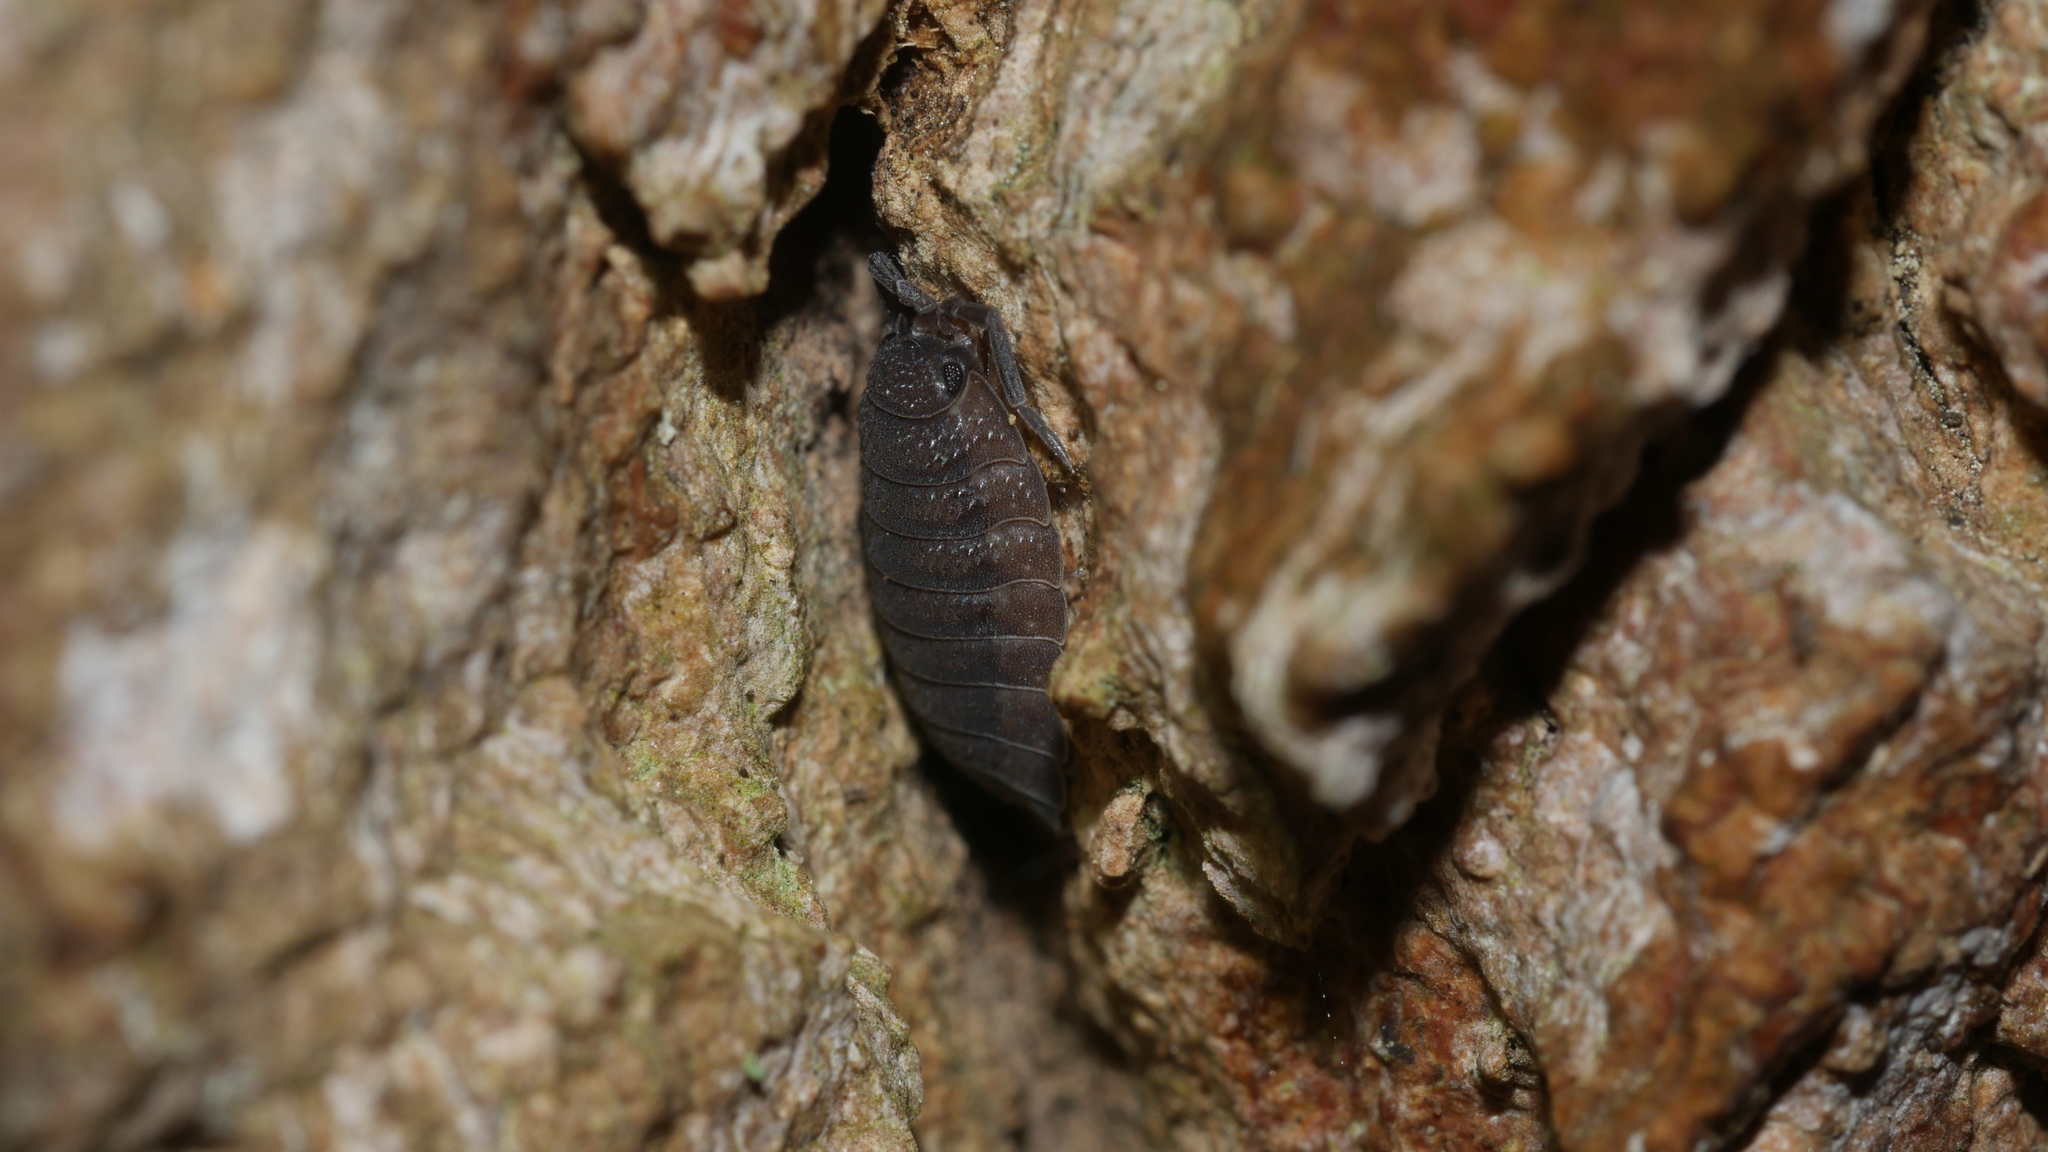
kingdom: Animalia
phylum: Arthropoda
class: Malacostraca
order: Isopoda
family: Porcellionidae
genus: Porcellio
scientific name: Porcellio scaber
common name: Common rough woodlouse
